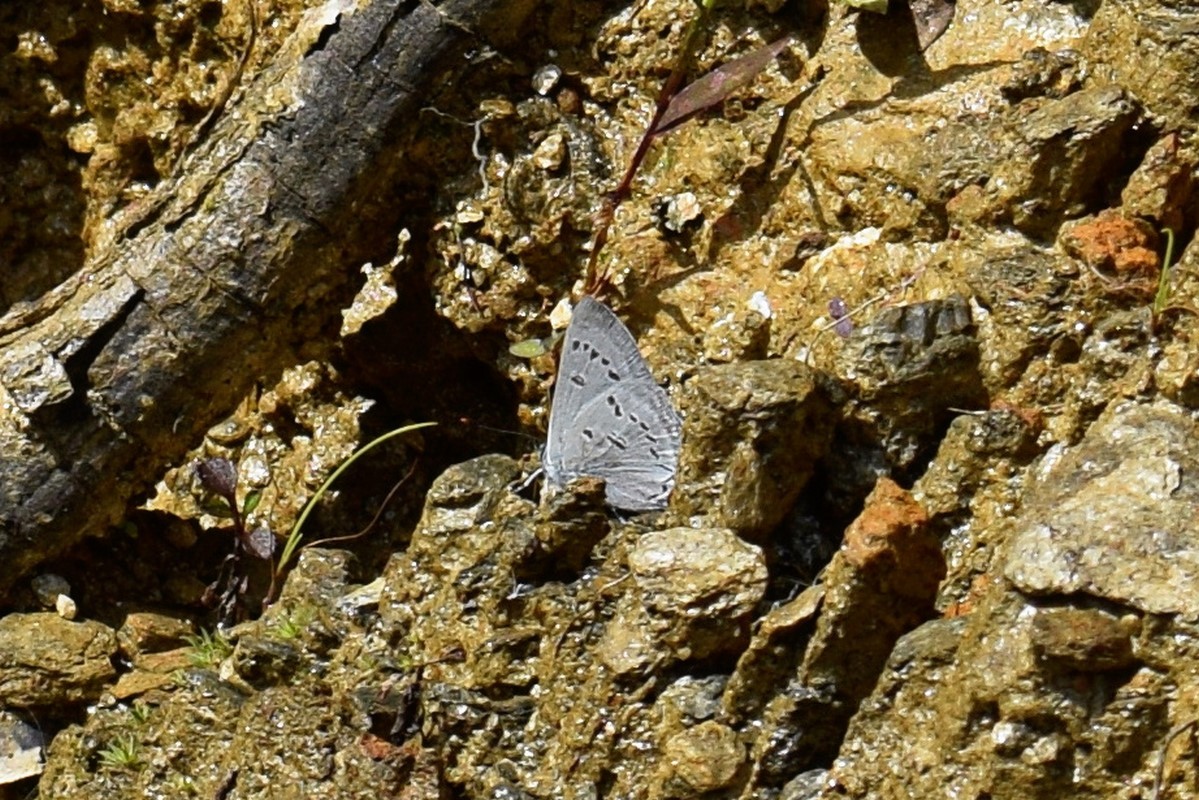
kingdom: Animalia
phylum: Arthropoda
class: Insecta
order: Lepidoptera
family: Lycaenidae
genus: Ancema
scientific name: Ancema ctesia
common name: Bi-spot royal
